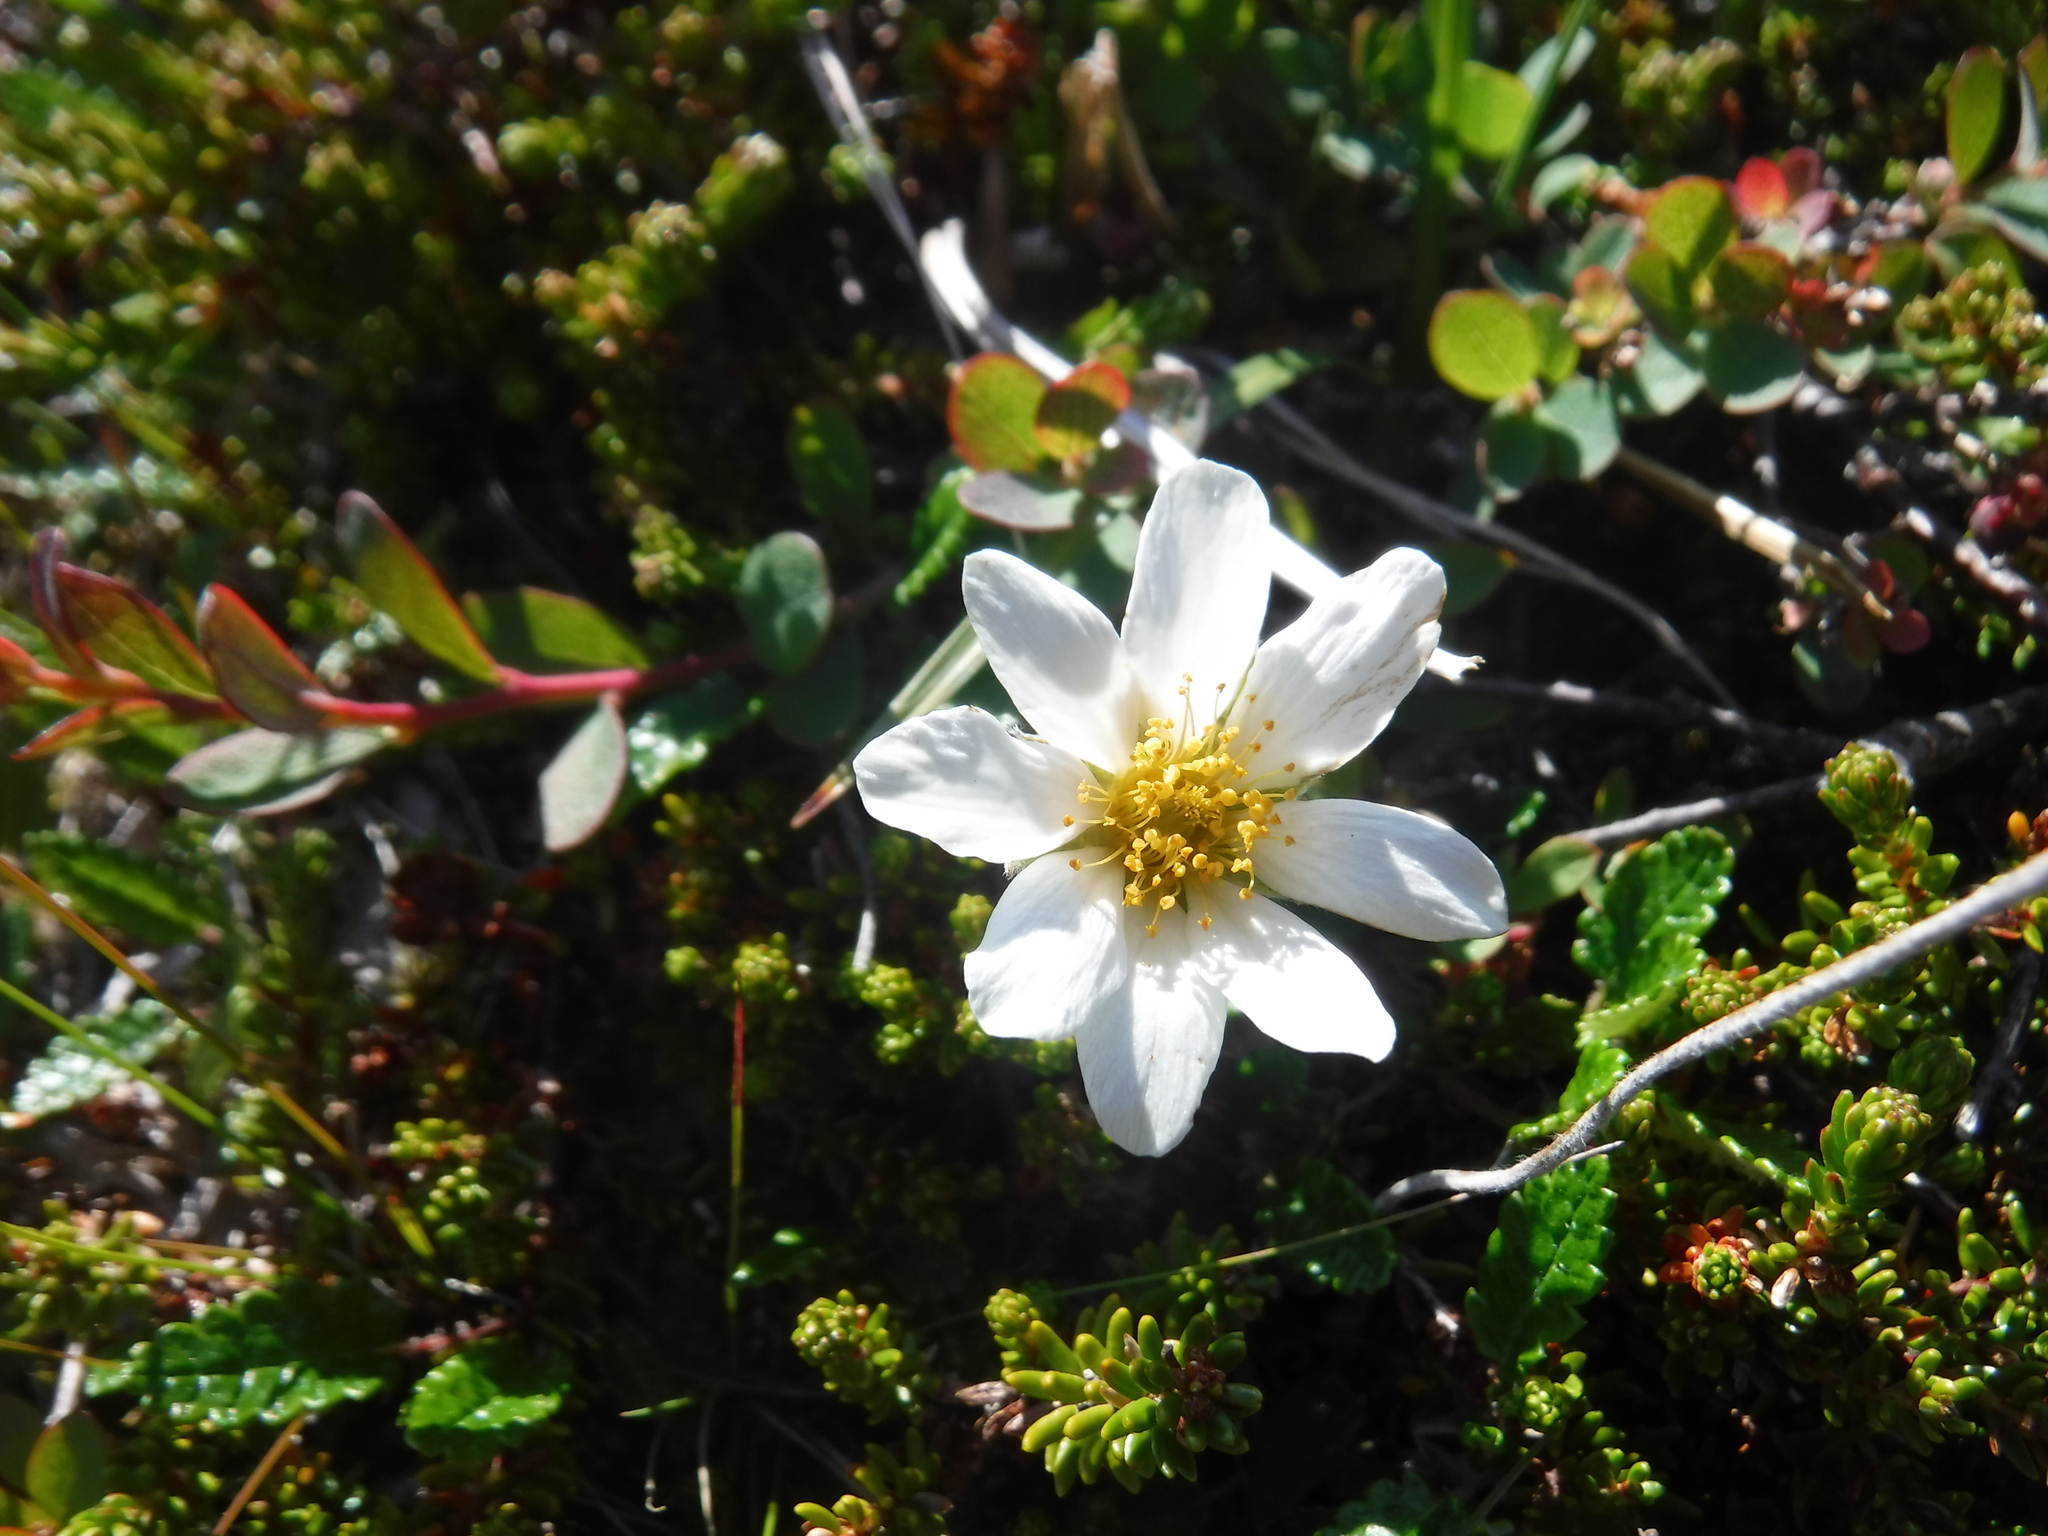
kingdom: Plantae
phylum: Tracheophyta
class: Magnoliopsida
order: Rosales
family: Rosaceae
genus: Dryas
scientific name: Dryas octopetala
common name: Eight-petal mountain-avens
